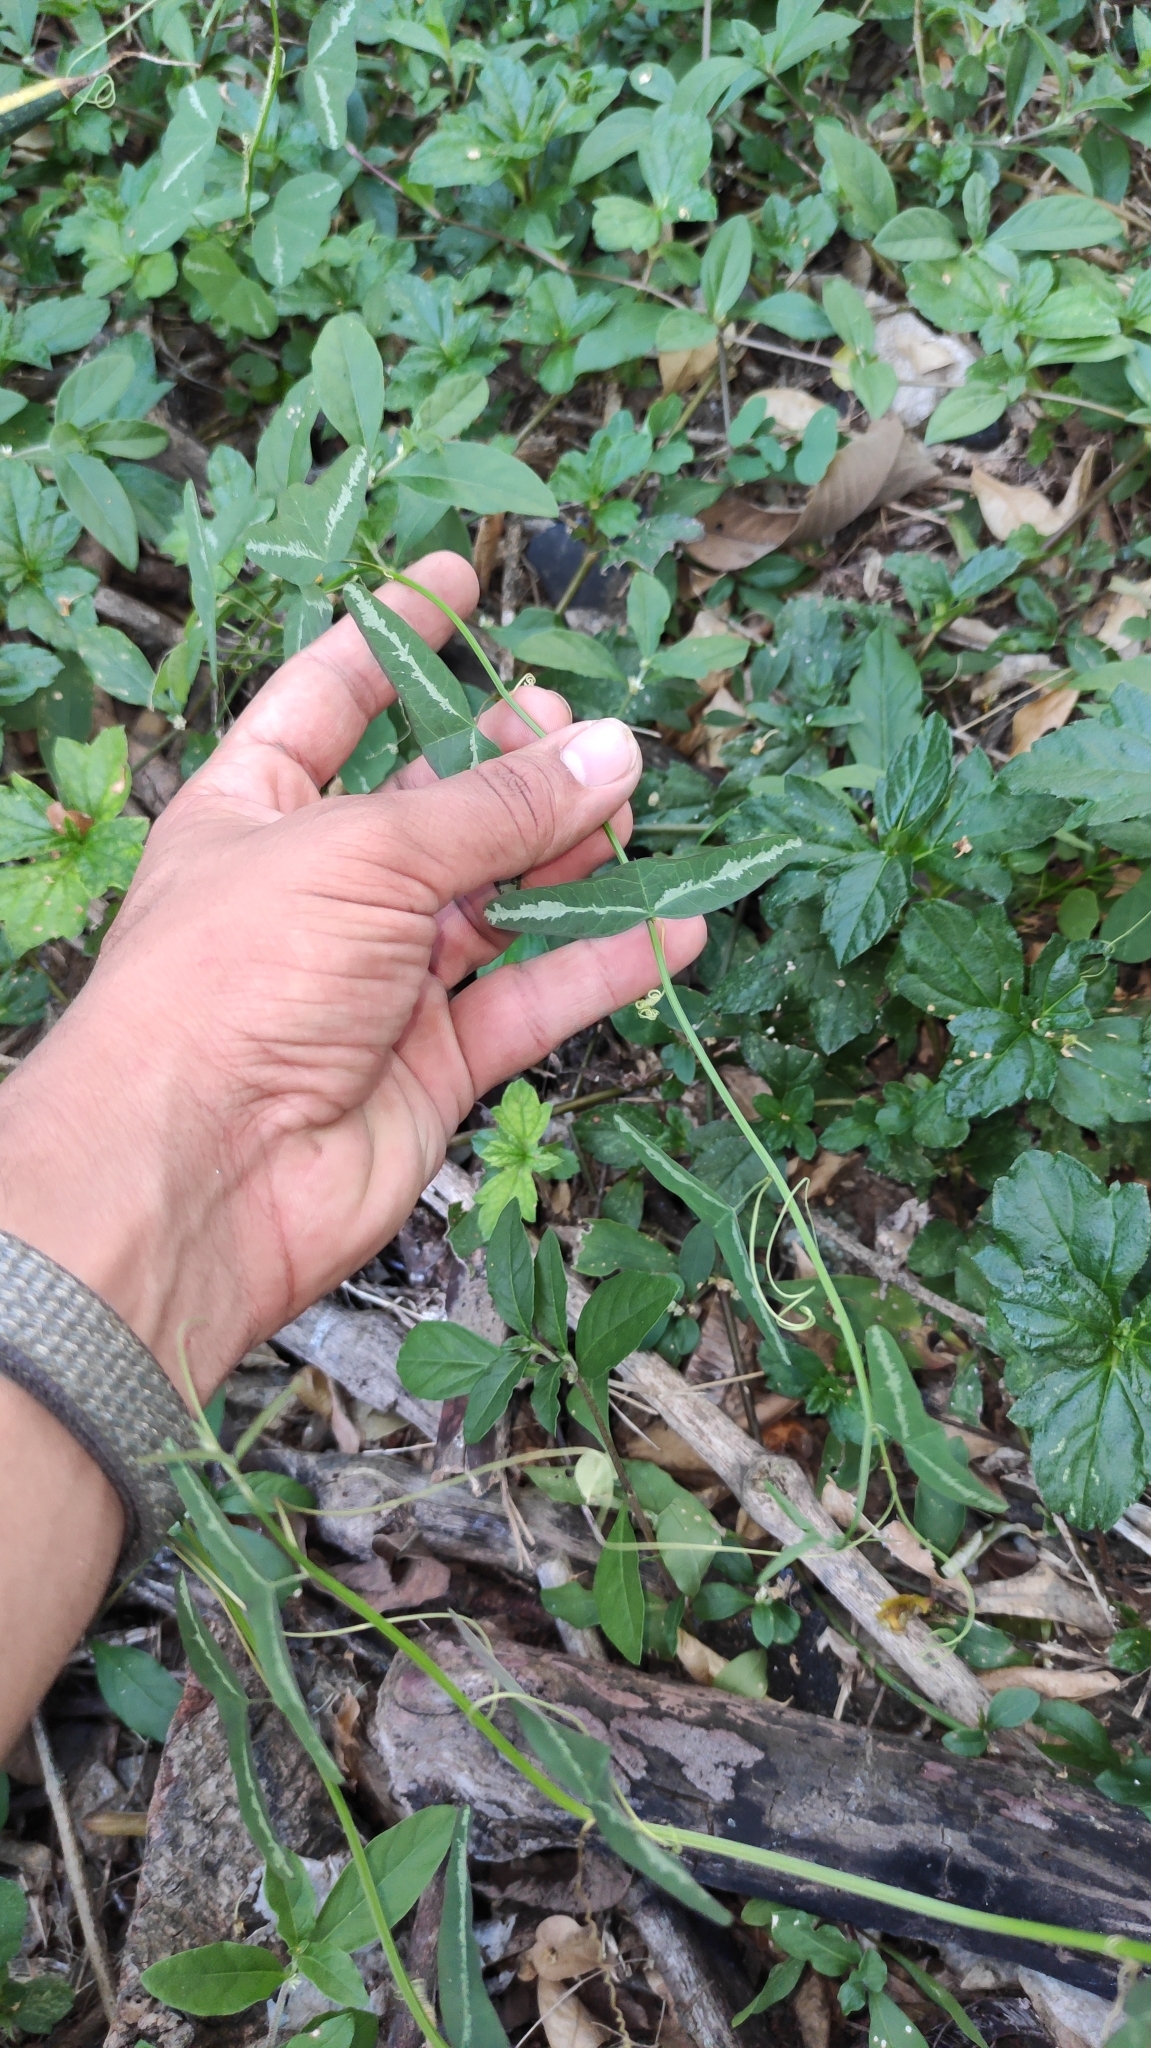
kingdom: Plantae
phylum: Tracheophyta
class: Magnoliopsida
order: Malpighiales
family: Passifloraceae
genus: Passiflora
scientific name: Passiflora misera
